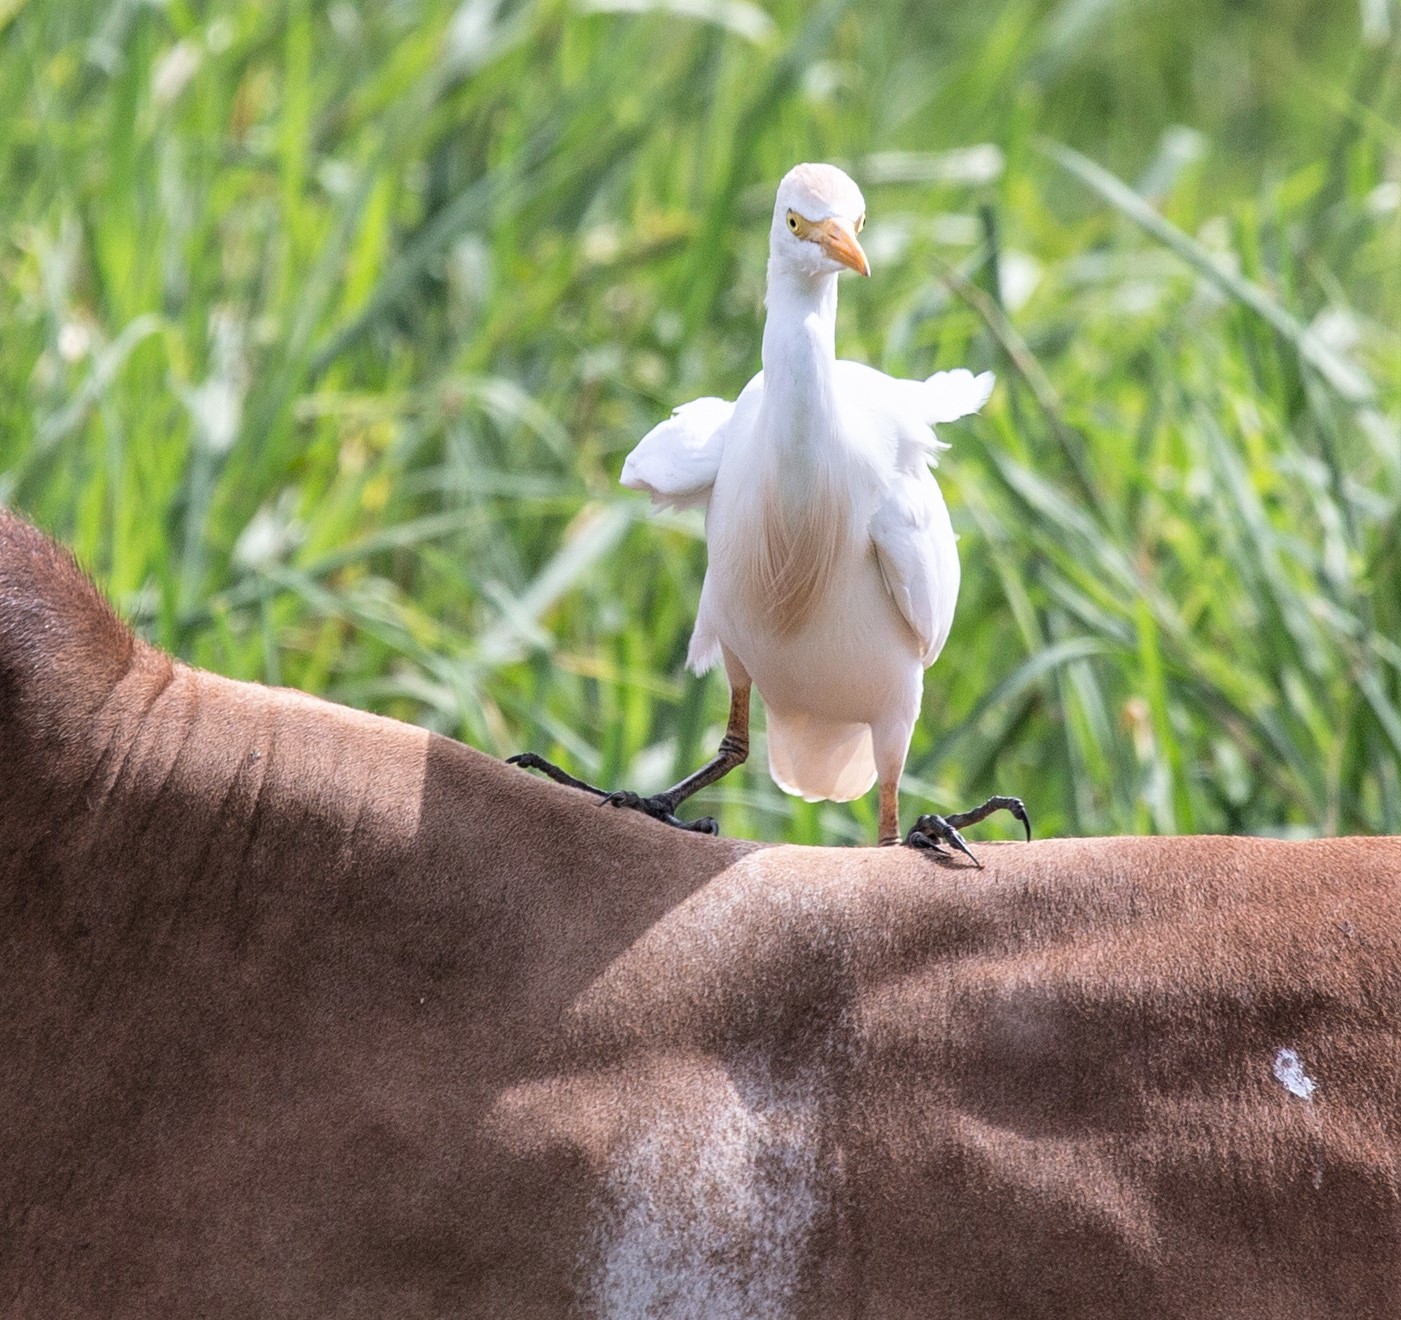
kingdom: Animalia
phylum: Chordata
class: Aves
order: Pelecaniformes
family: Ardeidae
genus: Bubulcus
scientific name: Bubulcus ibis
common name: Cattle egret
